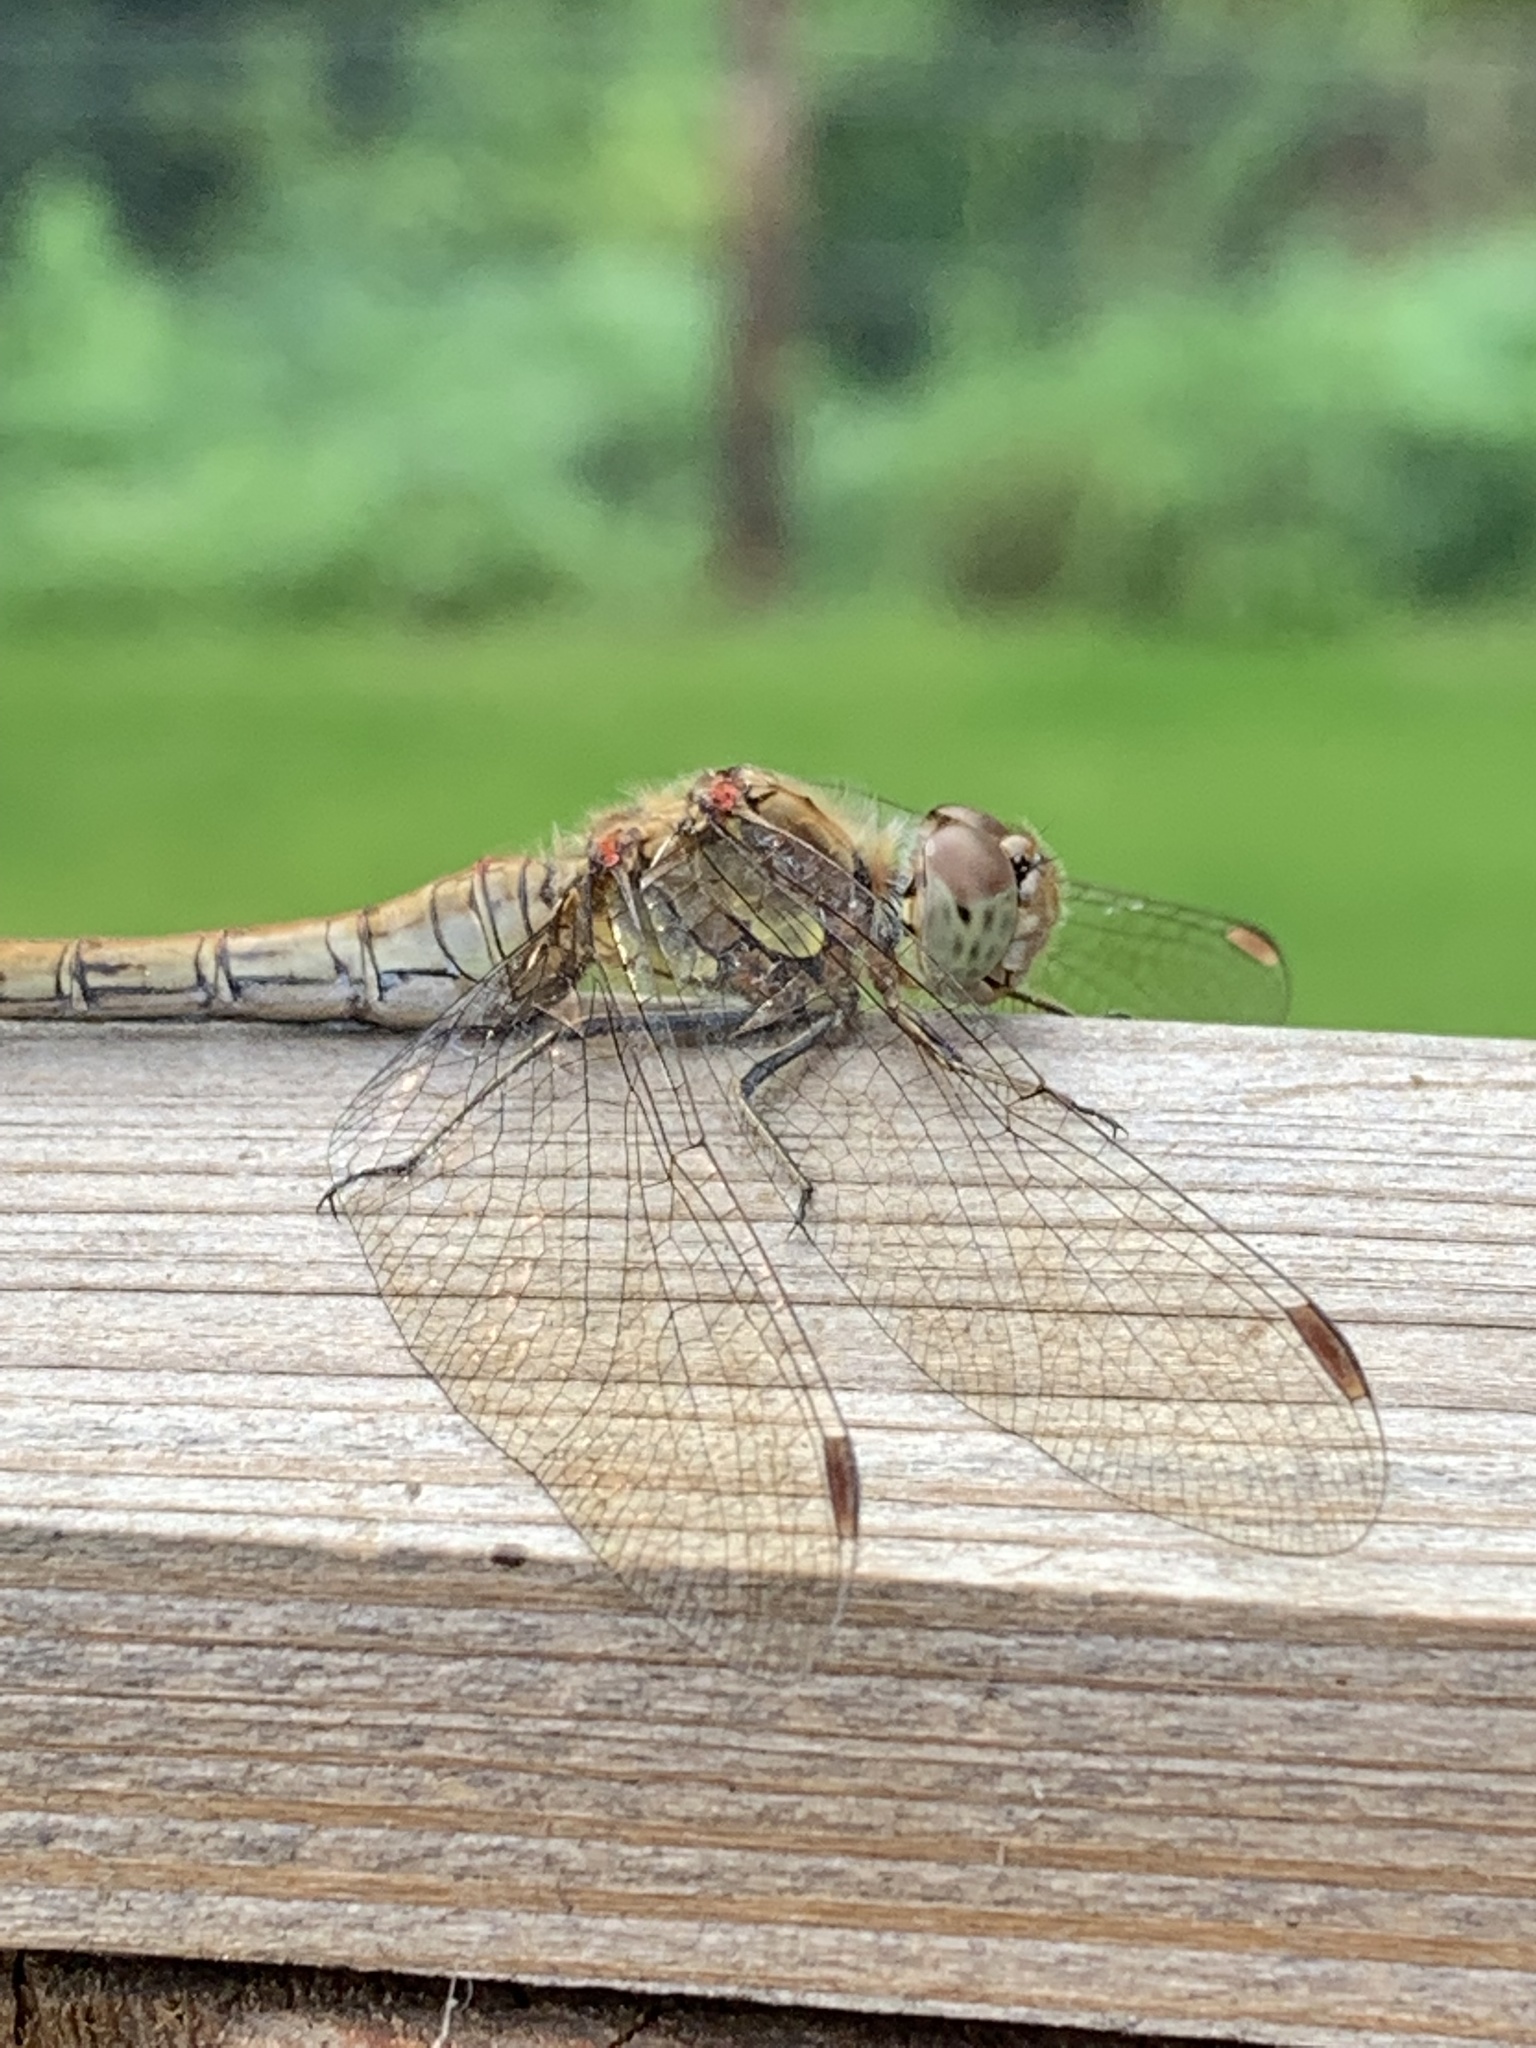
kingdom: Animalia
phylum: Arthropoda
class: Insecta
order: Odonata
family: Libellulidae
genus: Sympetrum
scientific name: Sympetrum striolatum
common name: Common darter
